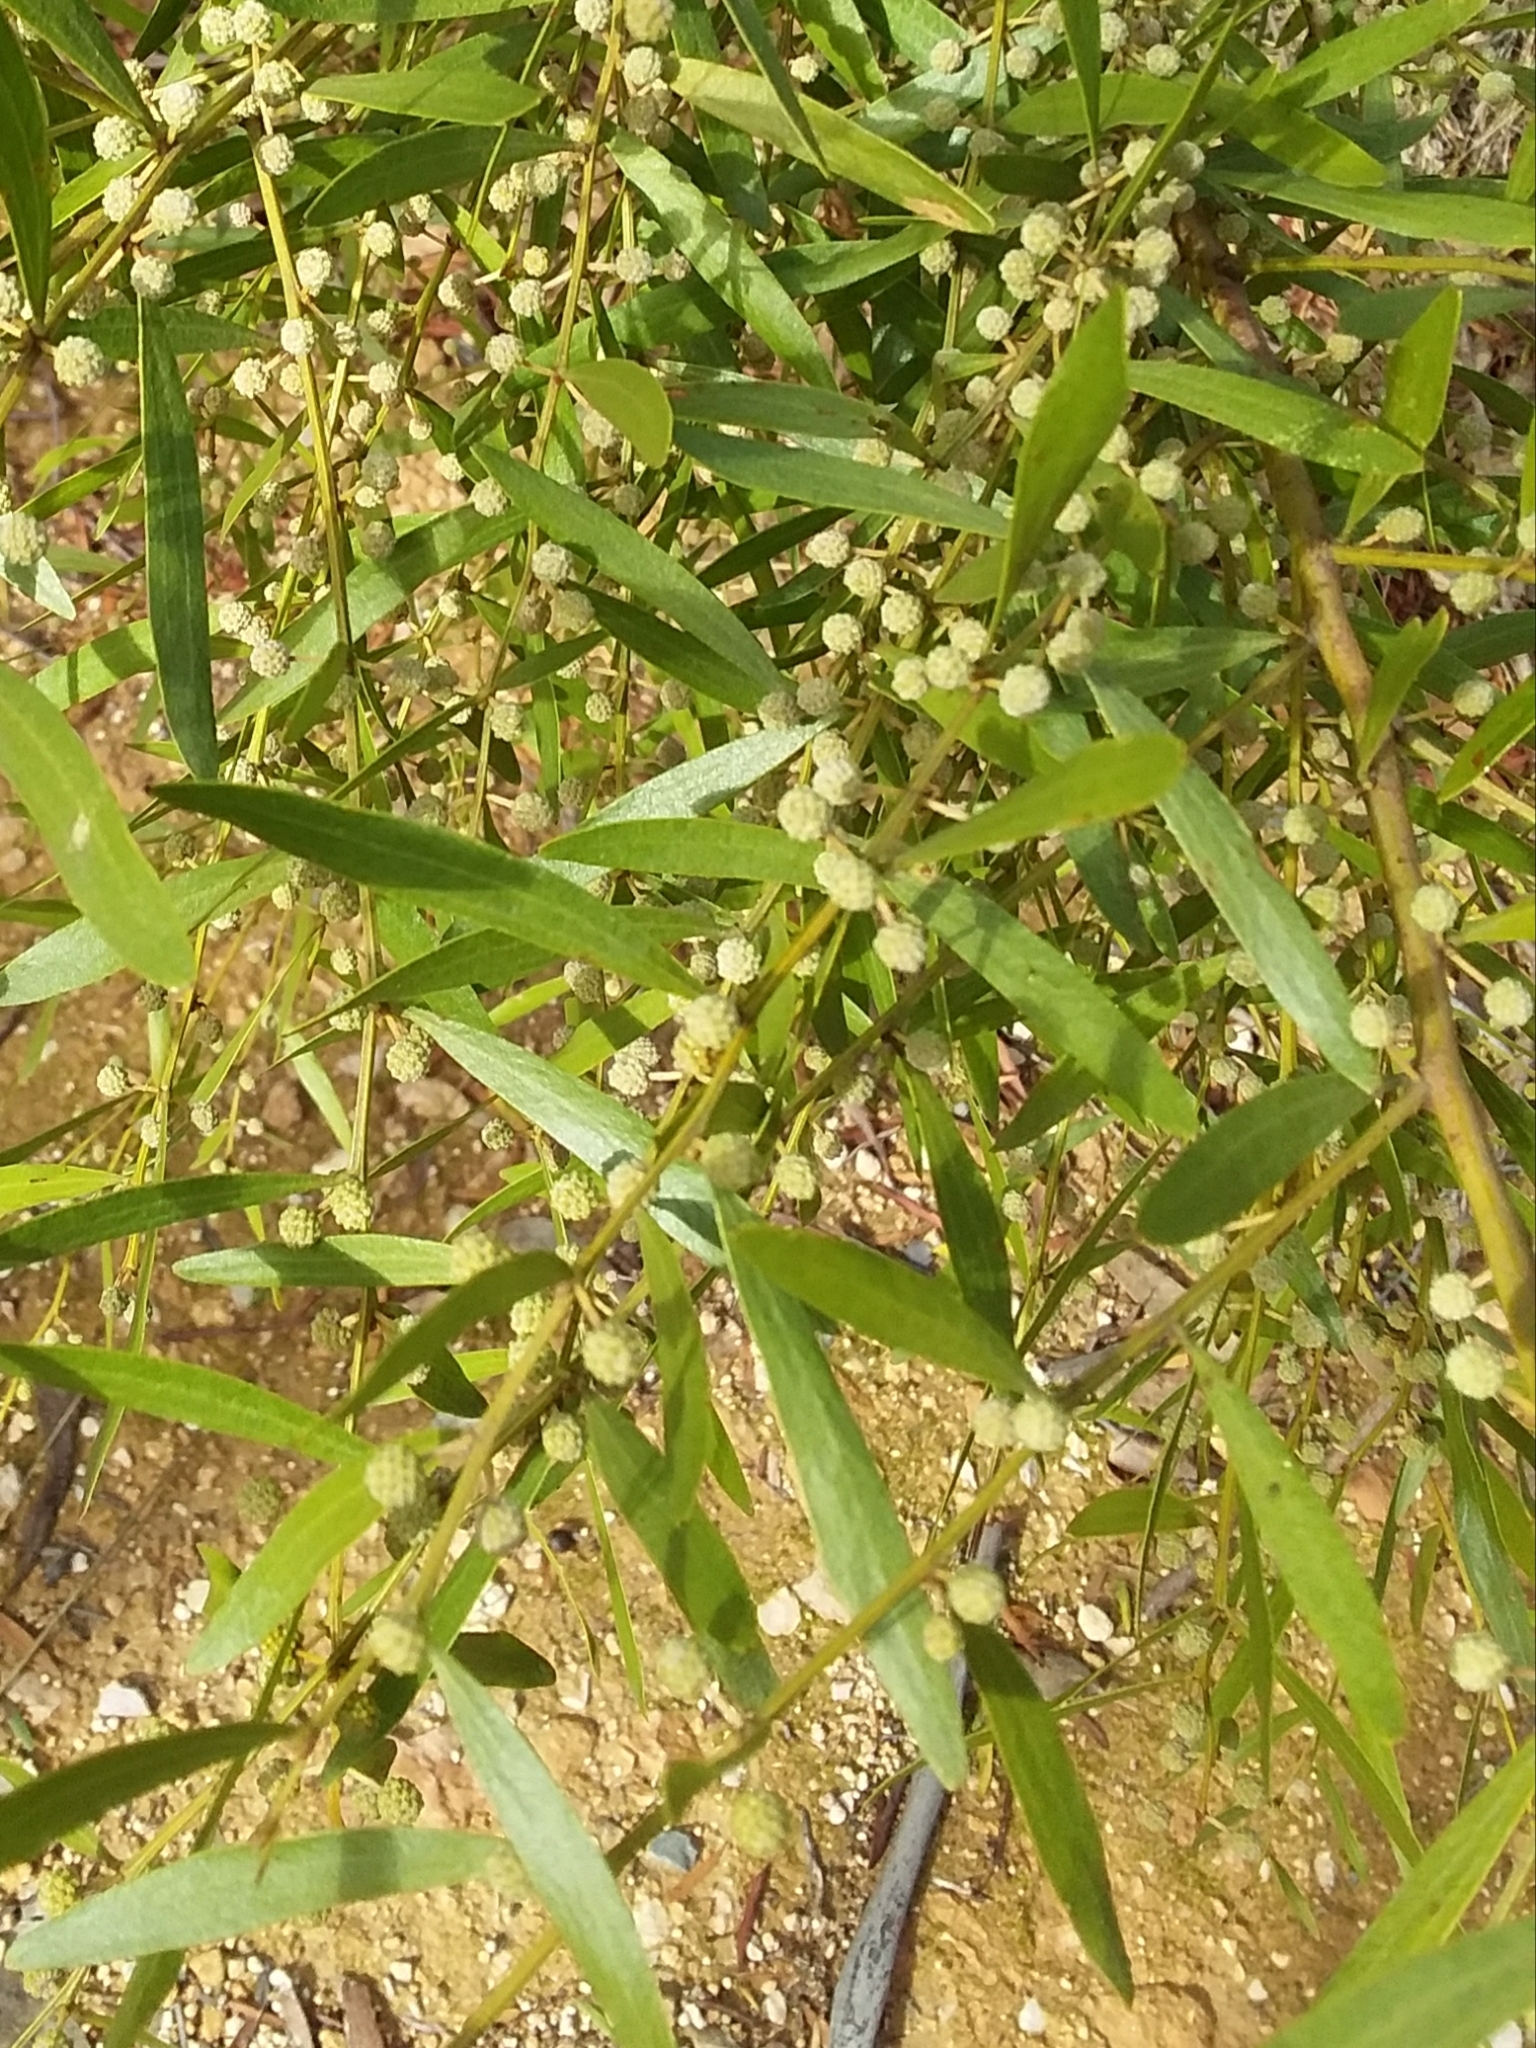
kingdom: Plantae
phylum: Tracheophyta
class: Magnoliopsida
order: Fabales
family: Fabaceae
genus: Acacia
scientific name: Acacia verniciflua
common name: Varnish wattle
